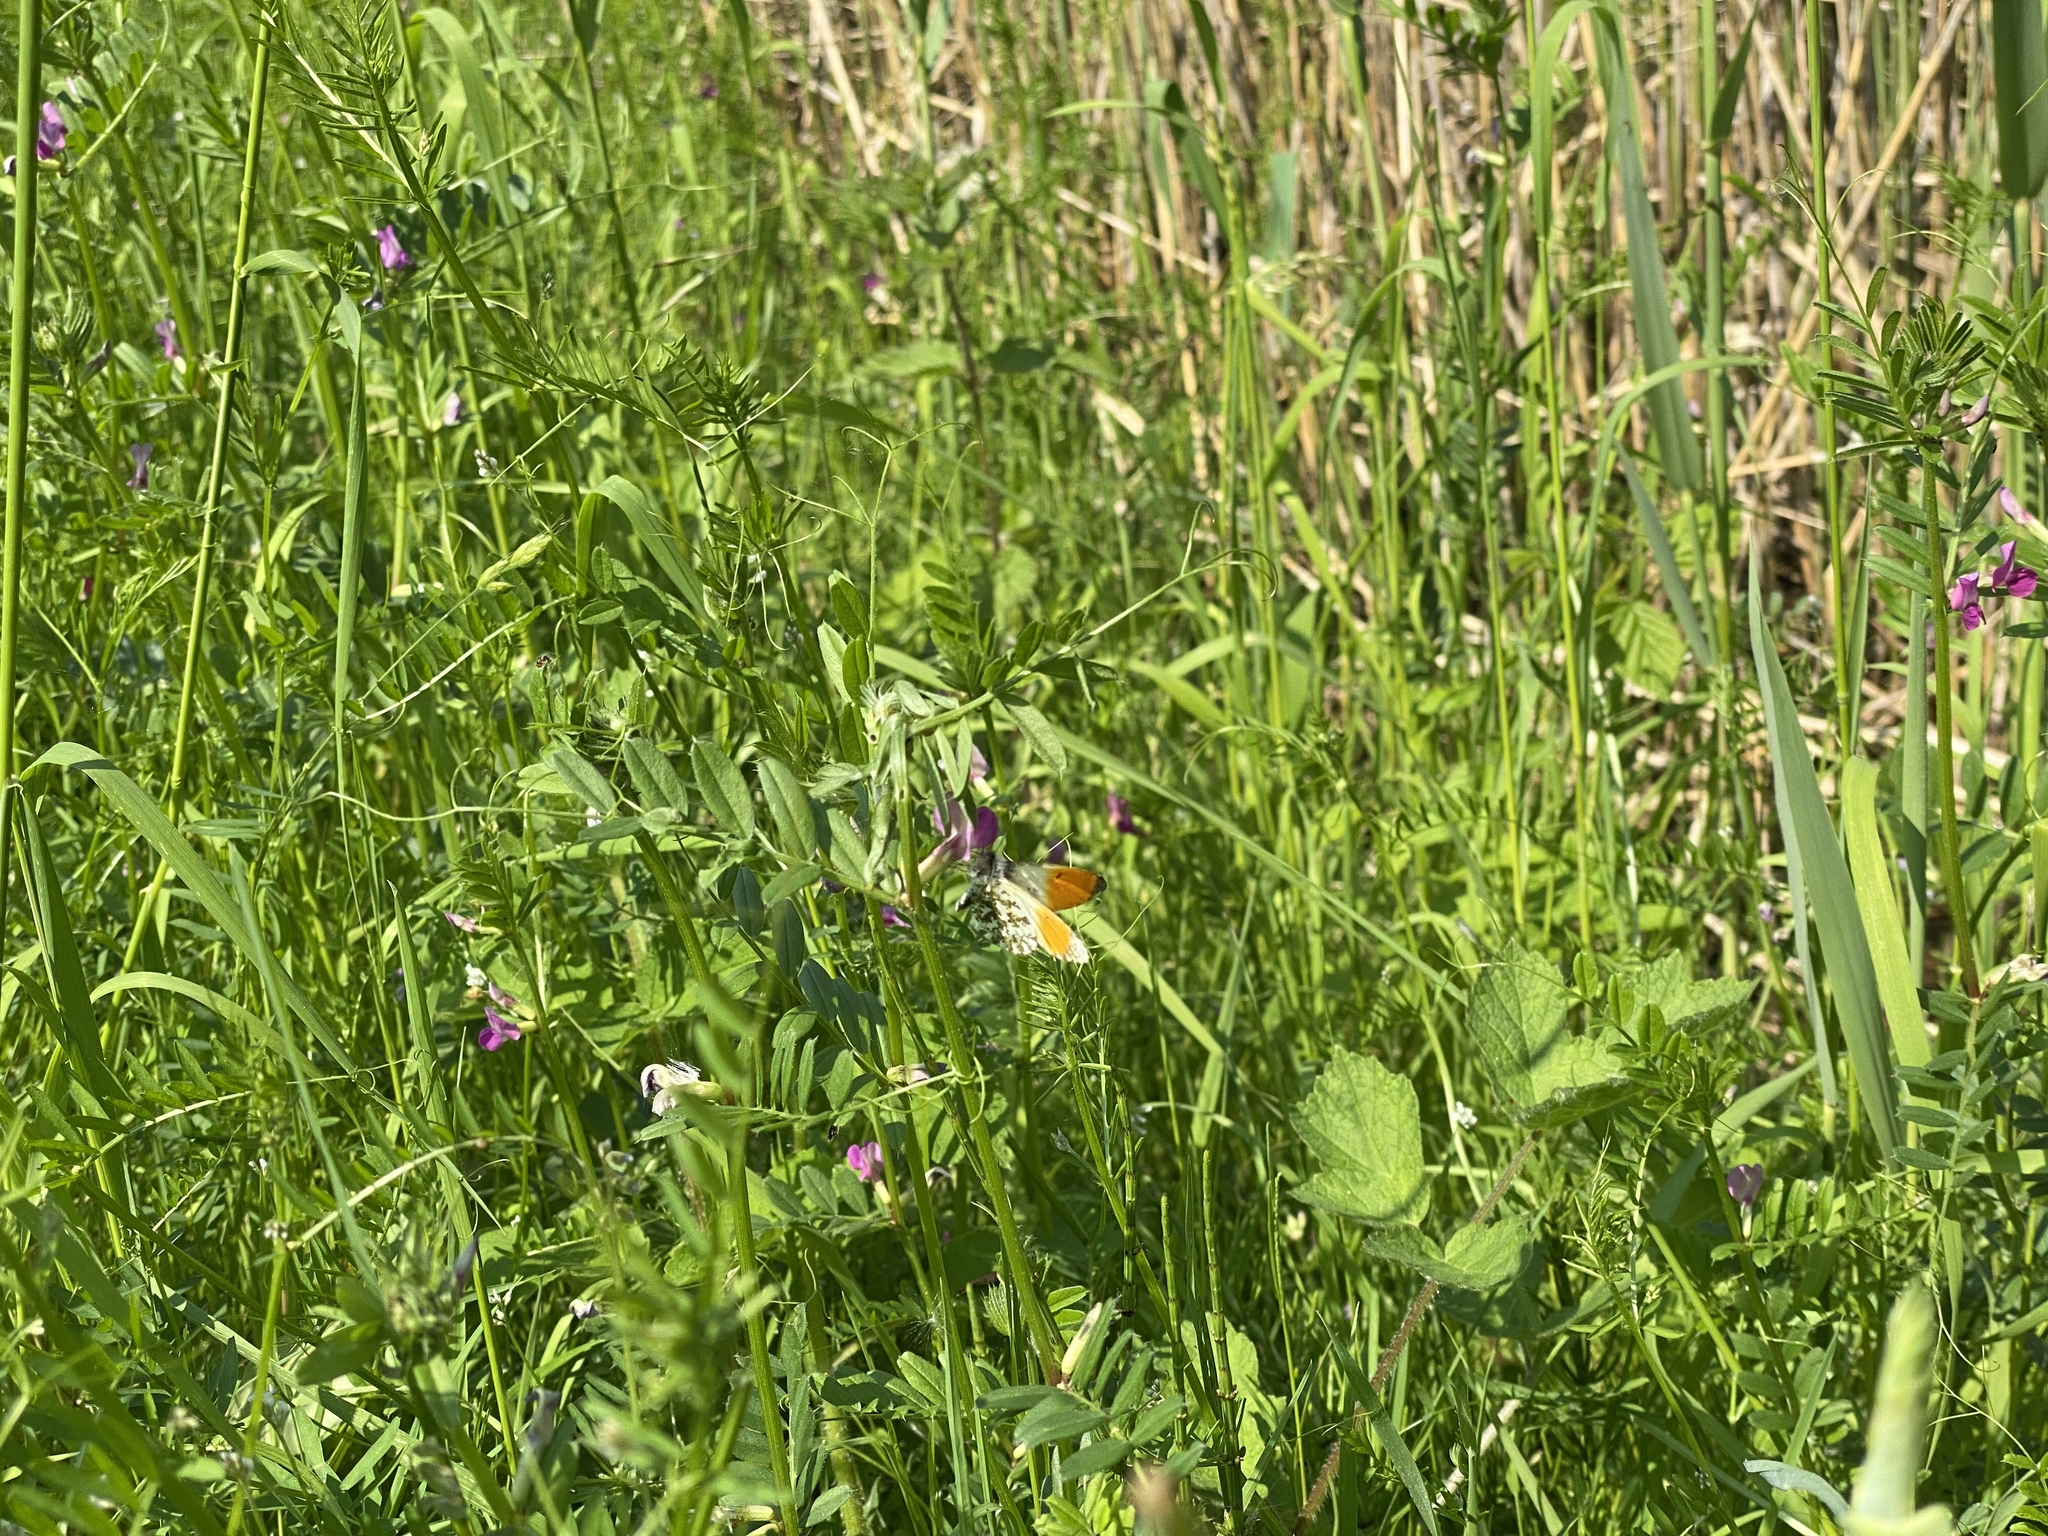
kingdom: Animalia
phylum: Arthropoda
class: Insecta
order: Lepidoptera
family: Pieridae
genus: Anthocharis
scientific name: Anthocharis cardamines
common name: Orange-tip
